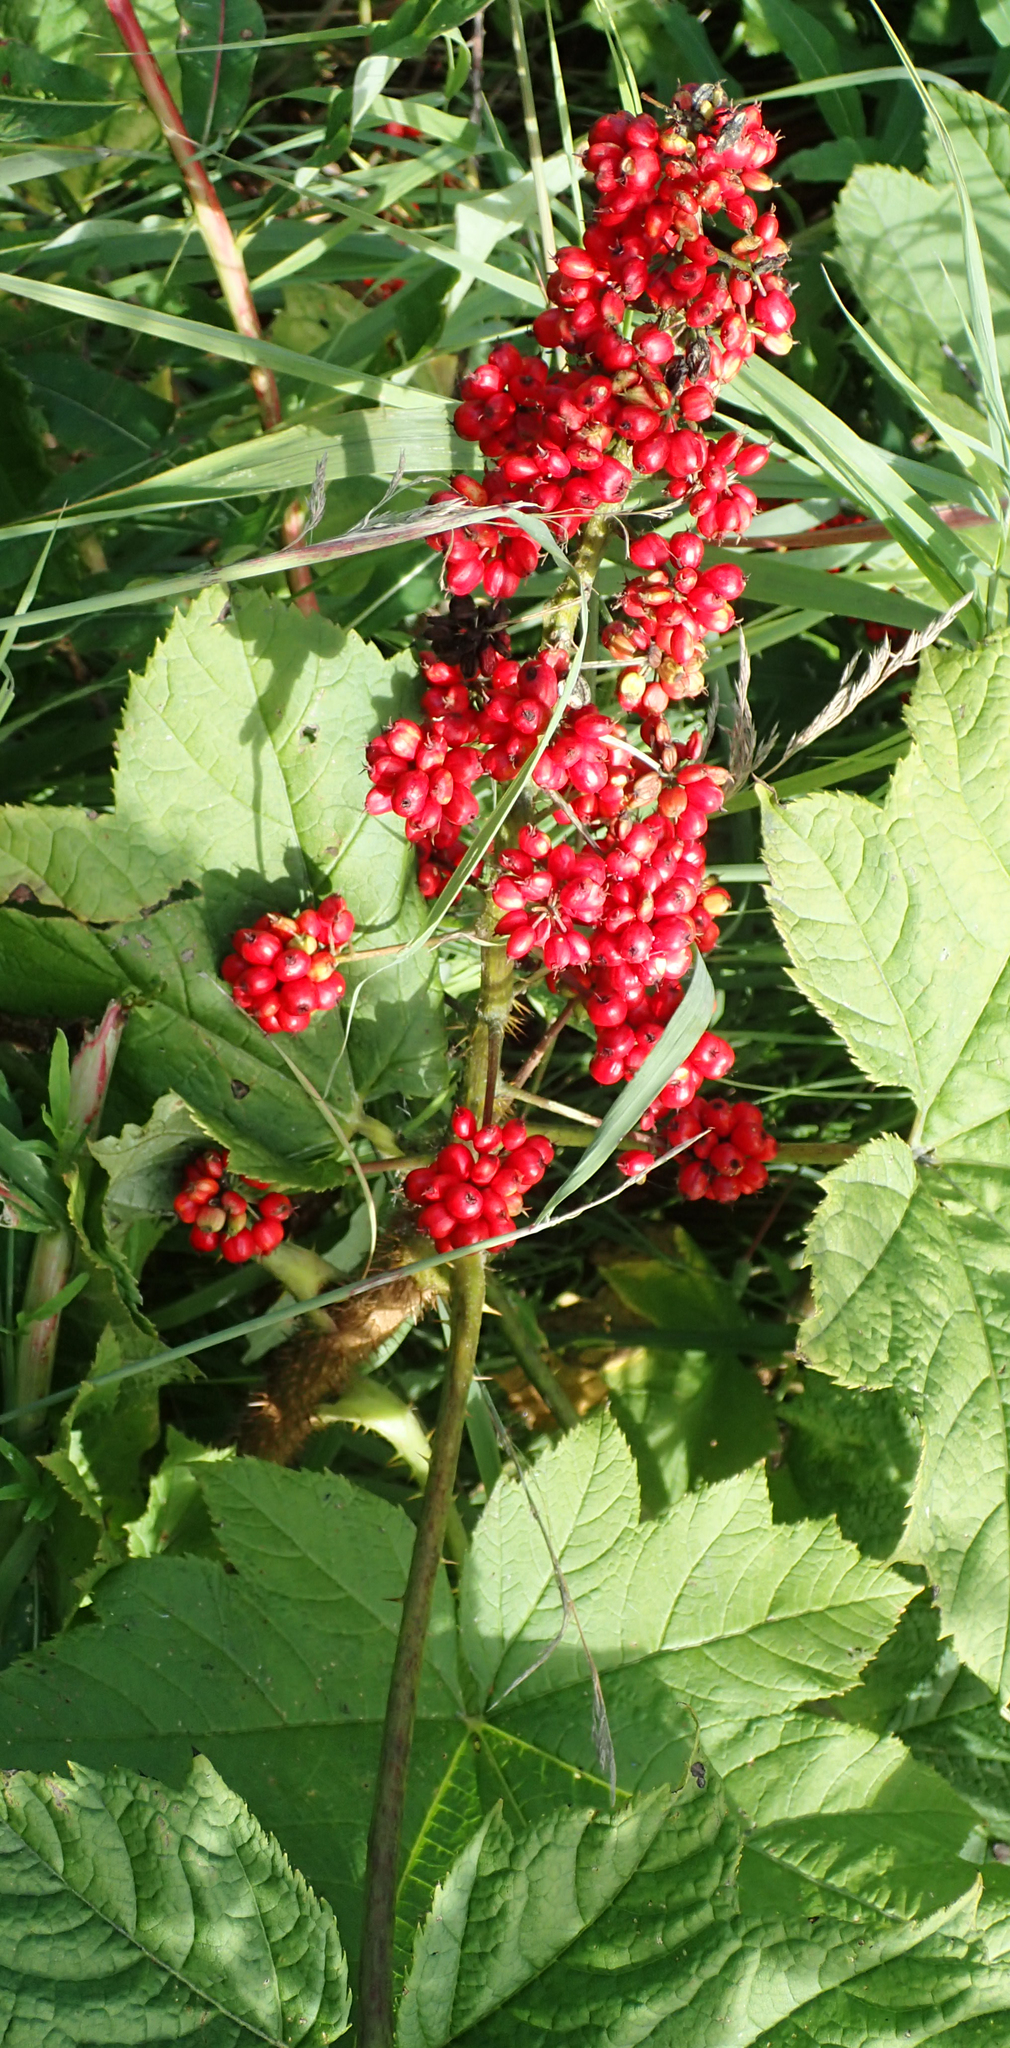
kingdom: Plantae
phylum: Tracheophyta
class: Magnoliopsida
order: Apiales
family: Araliaceae
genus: Oplopanax
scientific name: Oplopanax horridus
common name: Devil's walking-stick
